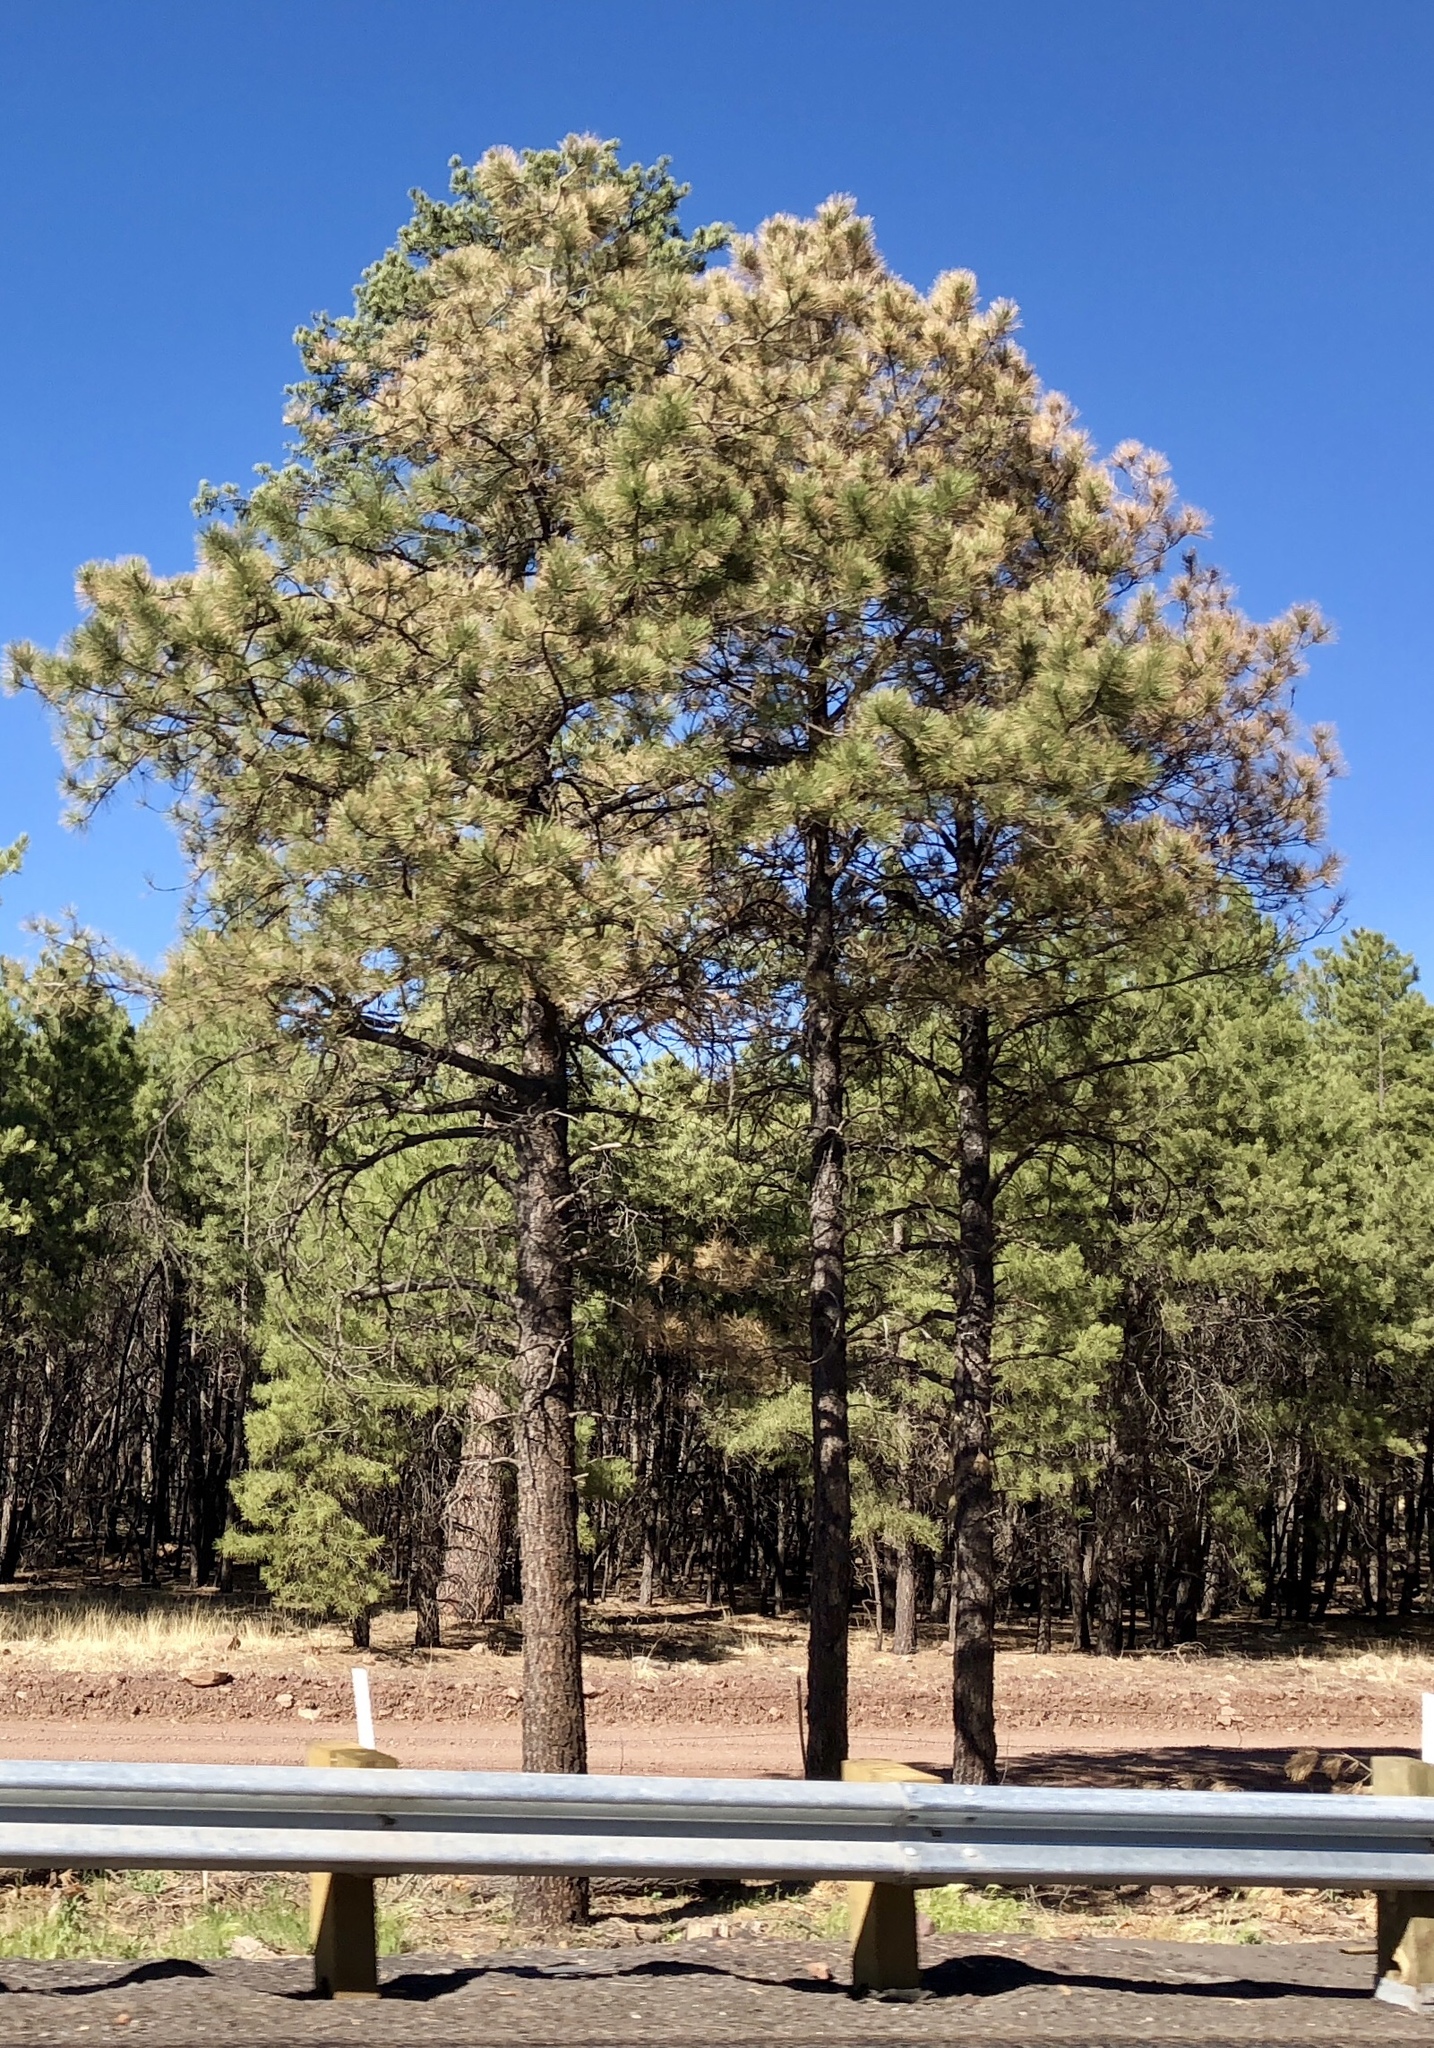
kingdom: Plantae
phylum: Tracheophyta
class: Pinopsida
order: Pinales
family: Pinaceae
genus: Pinus
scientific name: Pinus ponderosa
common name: Western yellow-pine
